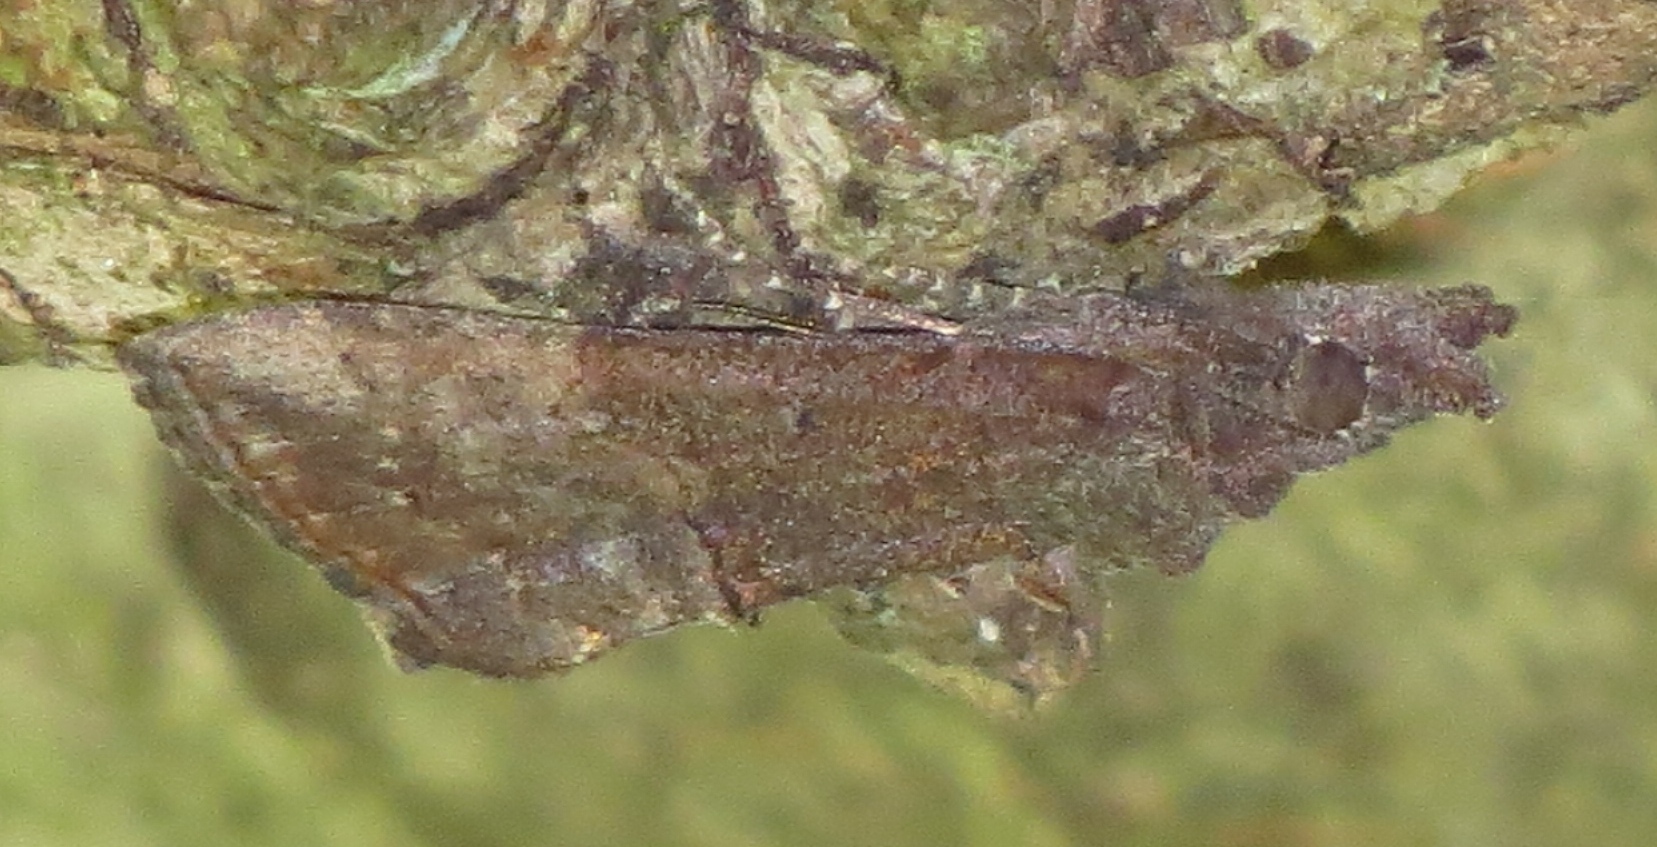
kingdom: Animalia
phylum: Arthropoda
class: Insecta
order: Lepidoptera
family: Erebidae
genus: Hypena
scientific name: Hypena scabra
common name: Green cloverworm
